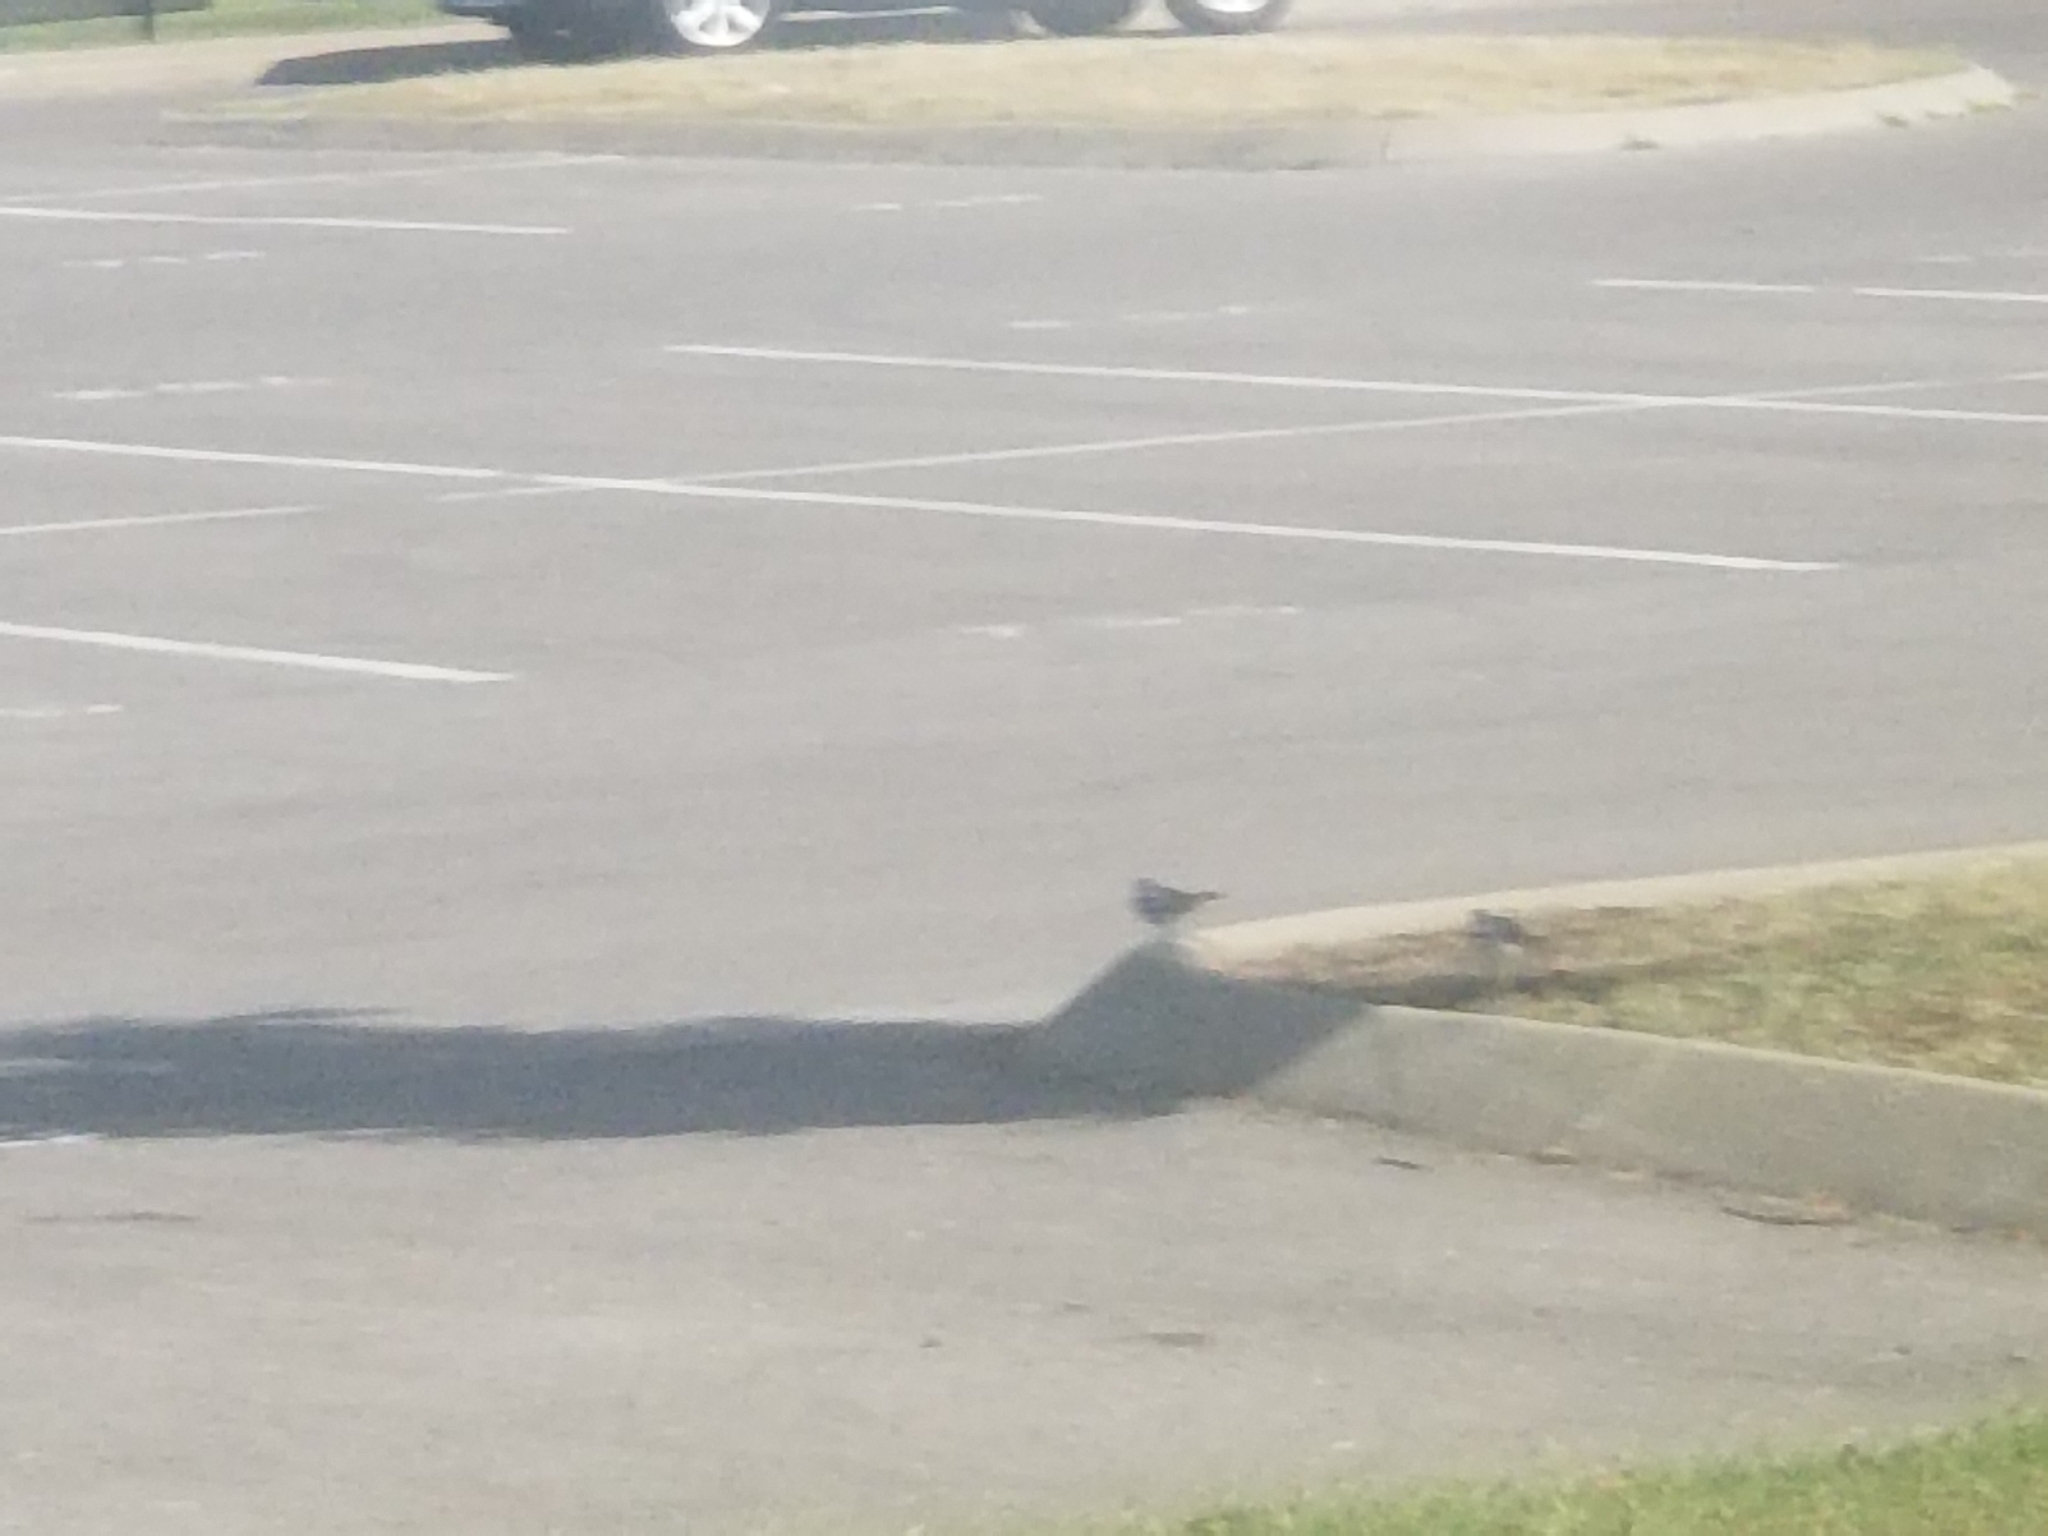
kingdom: Animalia
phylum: Chordata
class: Aves
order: Charadriiformes
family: Charadriidae
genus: Charadrius
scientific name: Charadrius vociferus
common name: Killdeer
